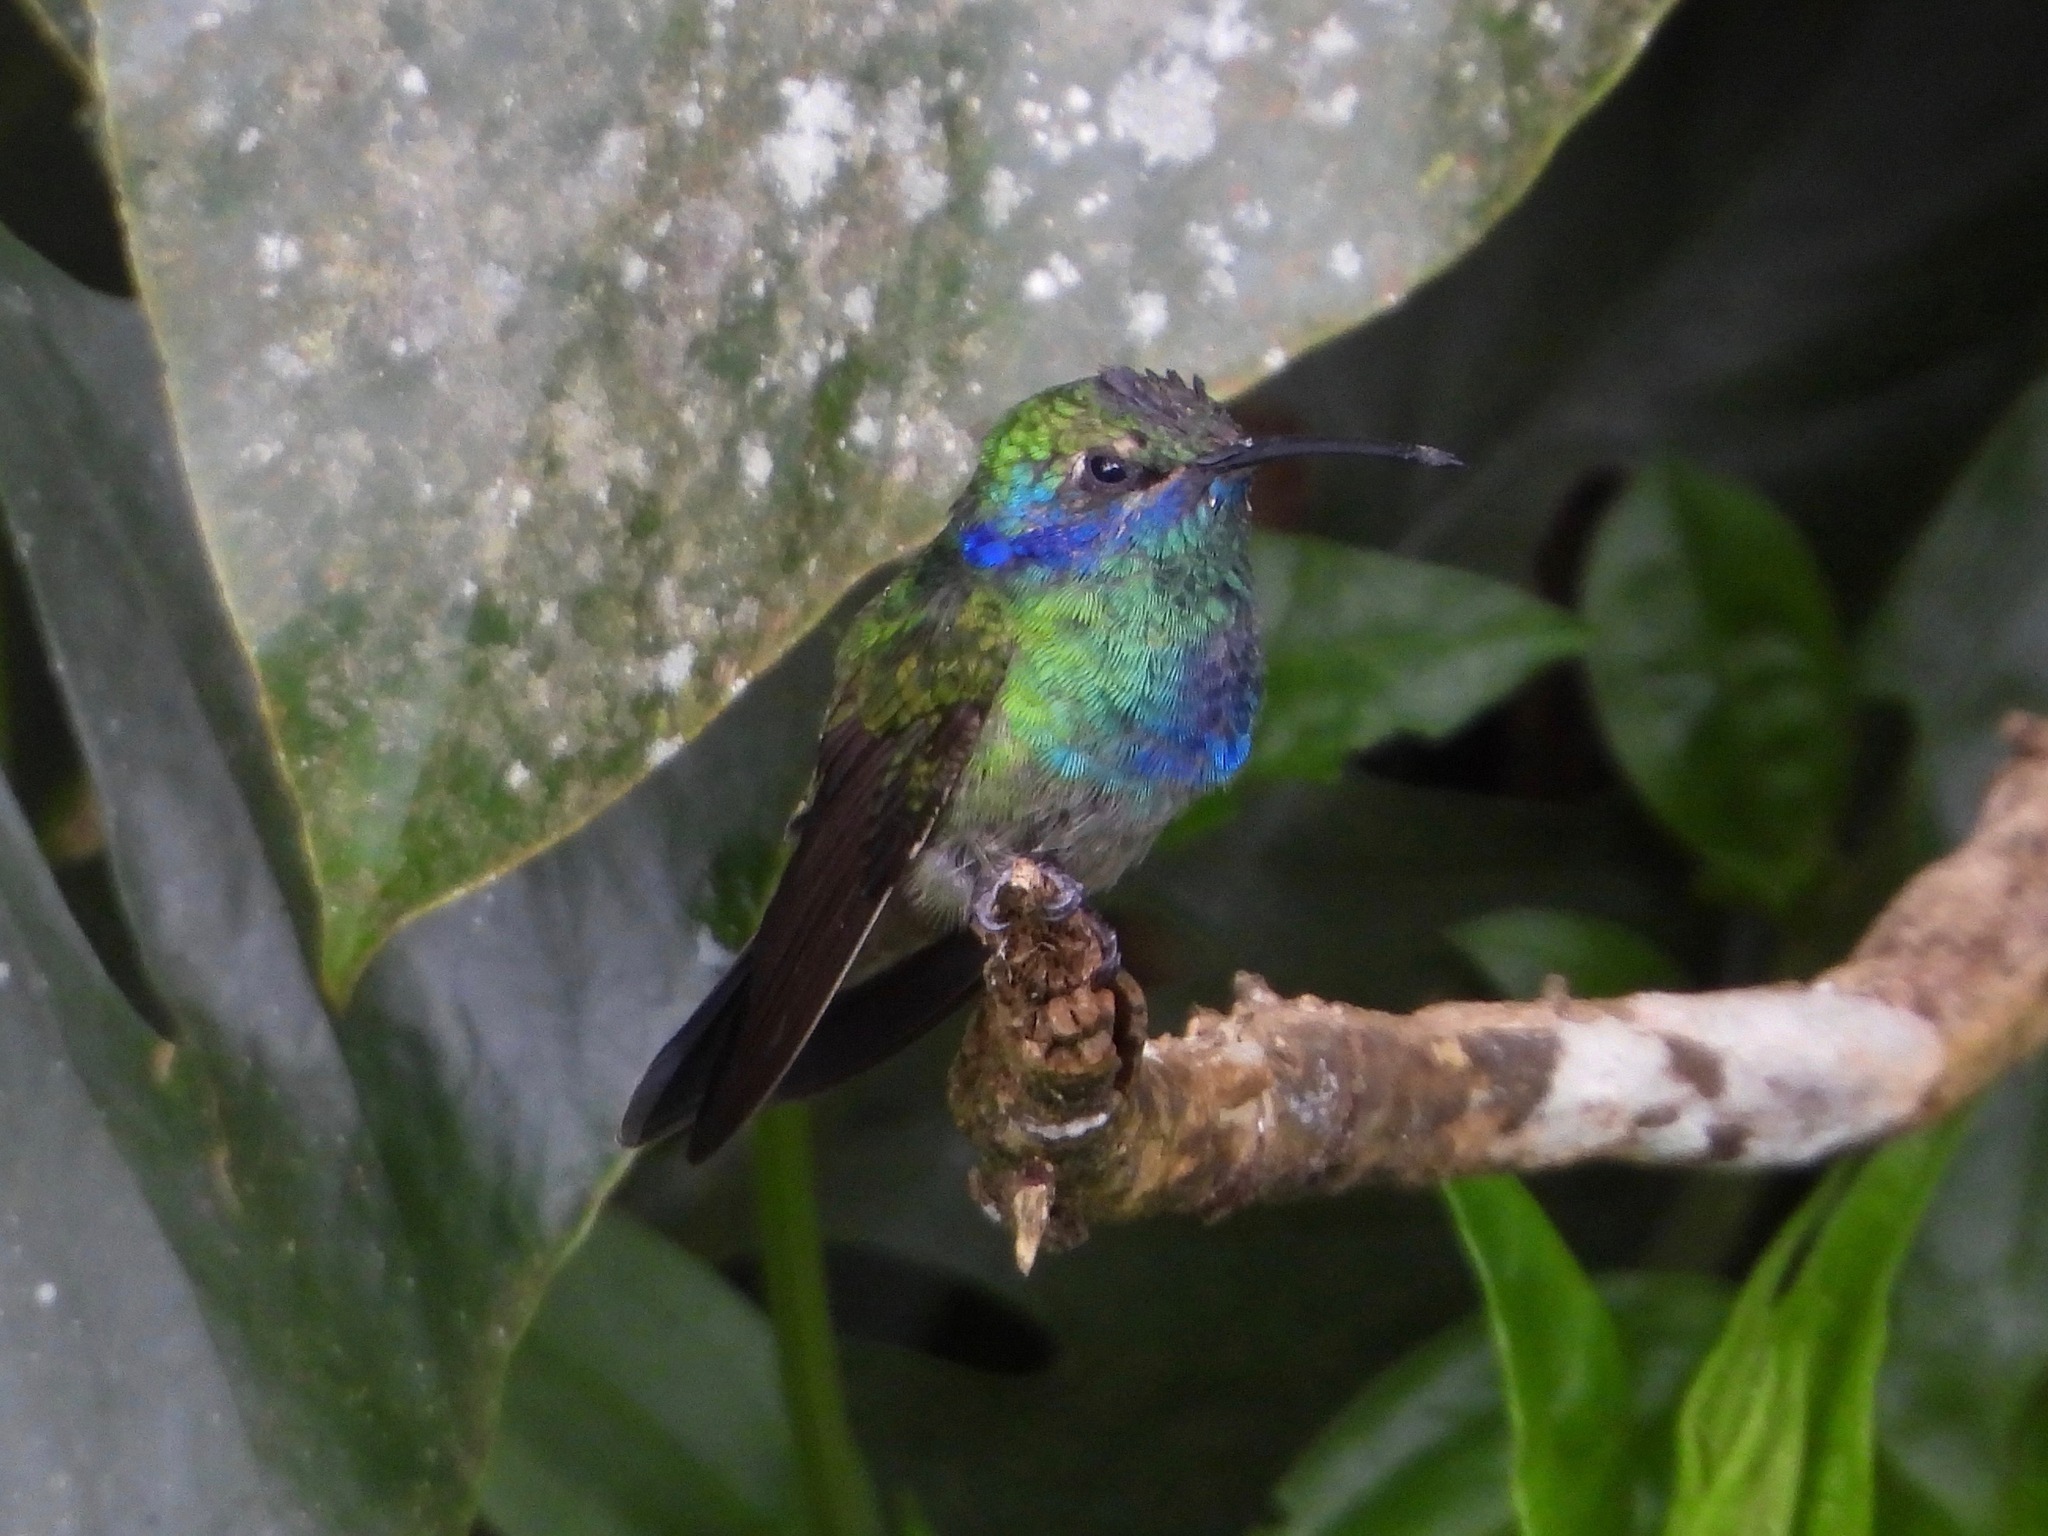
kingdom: Animalia
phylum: Chordata
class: Aves
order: Apodiformes
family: Trochilidae
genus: Colibri
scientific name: Colibri thalassinus
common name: Green violetear
